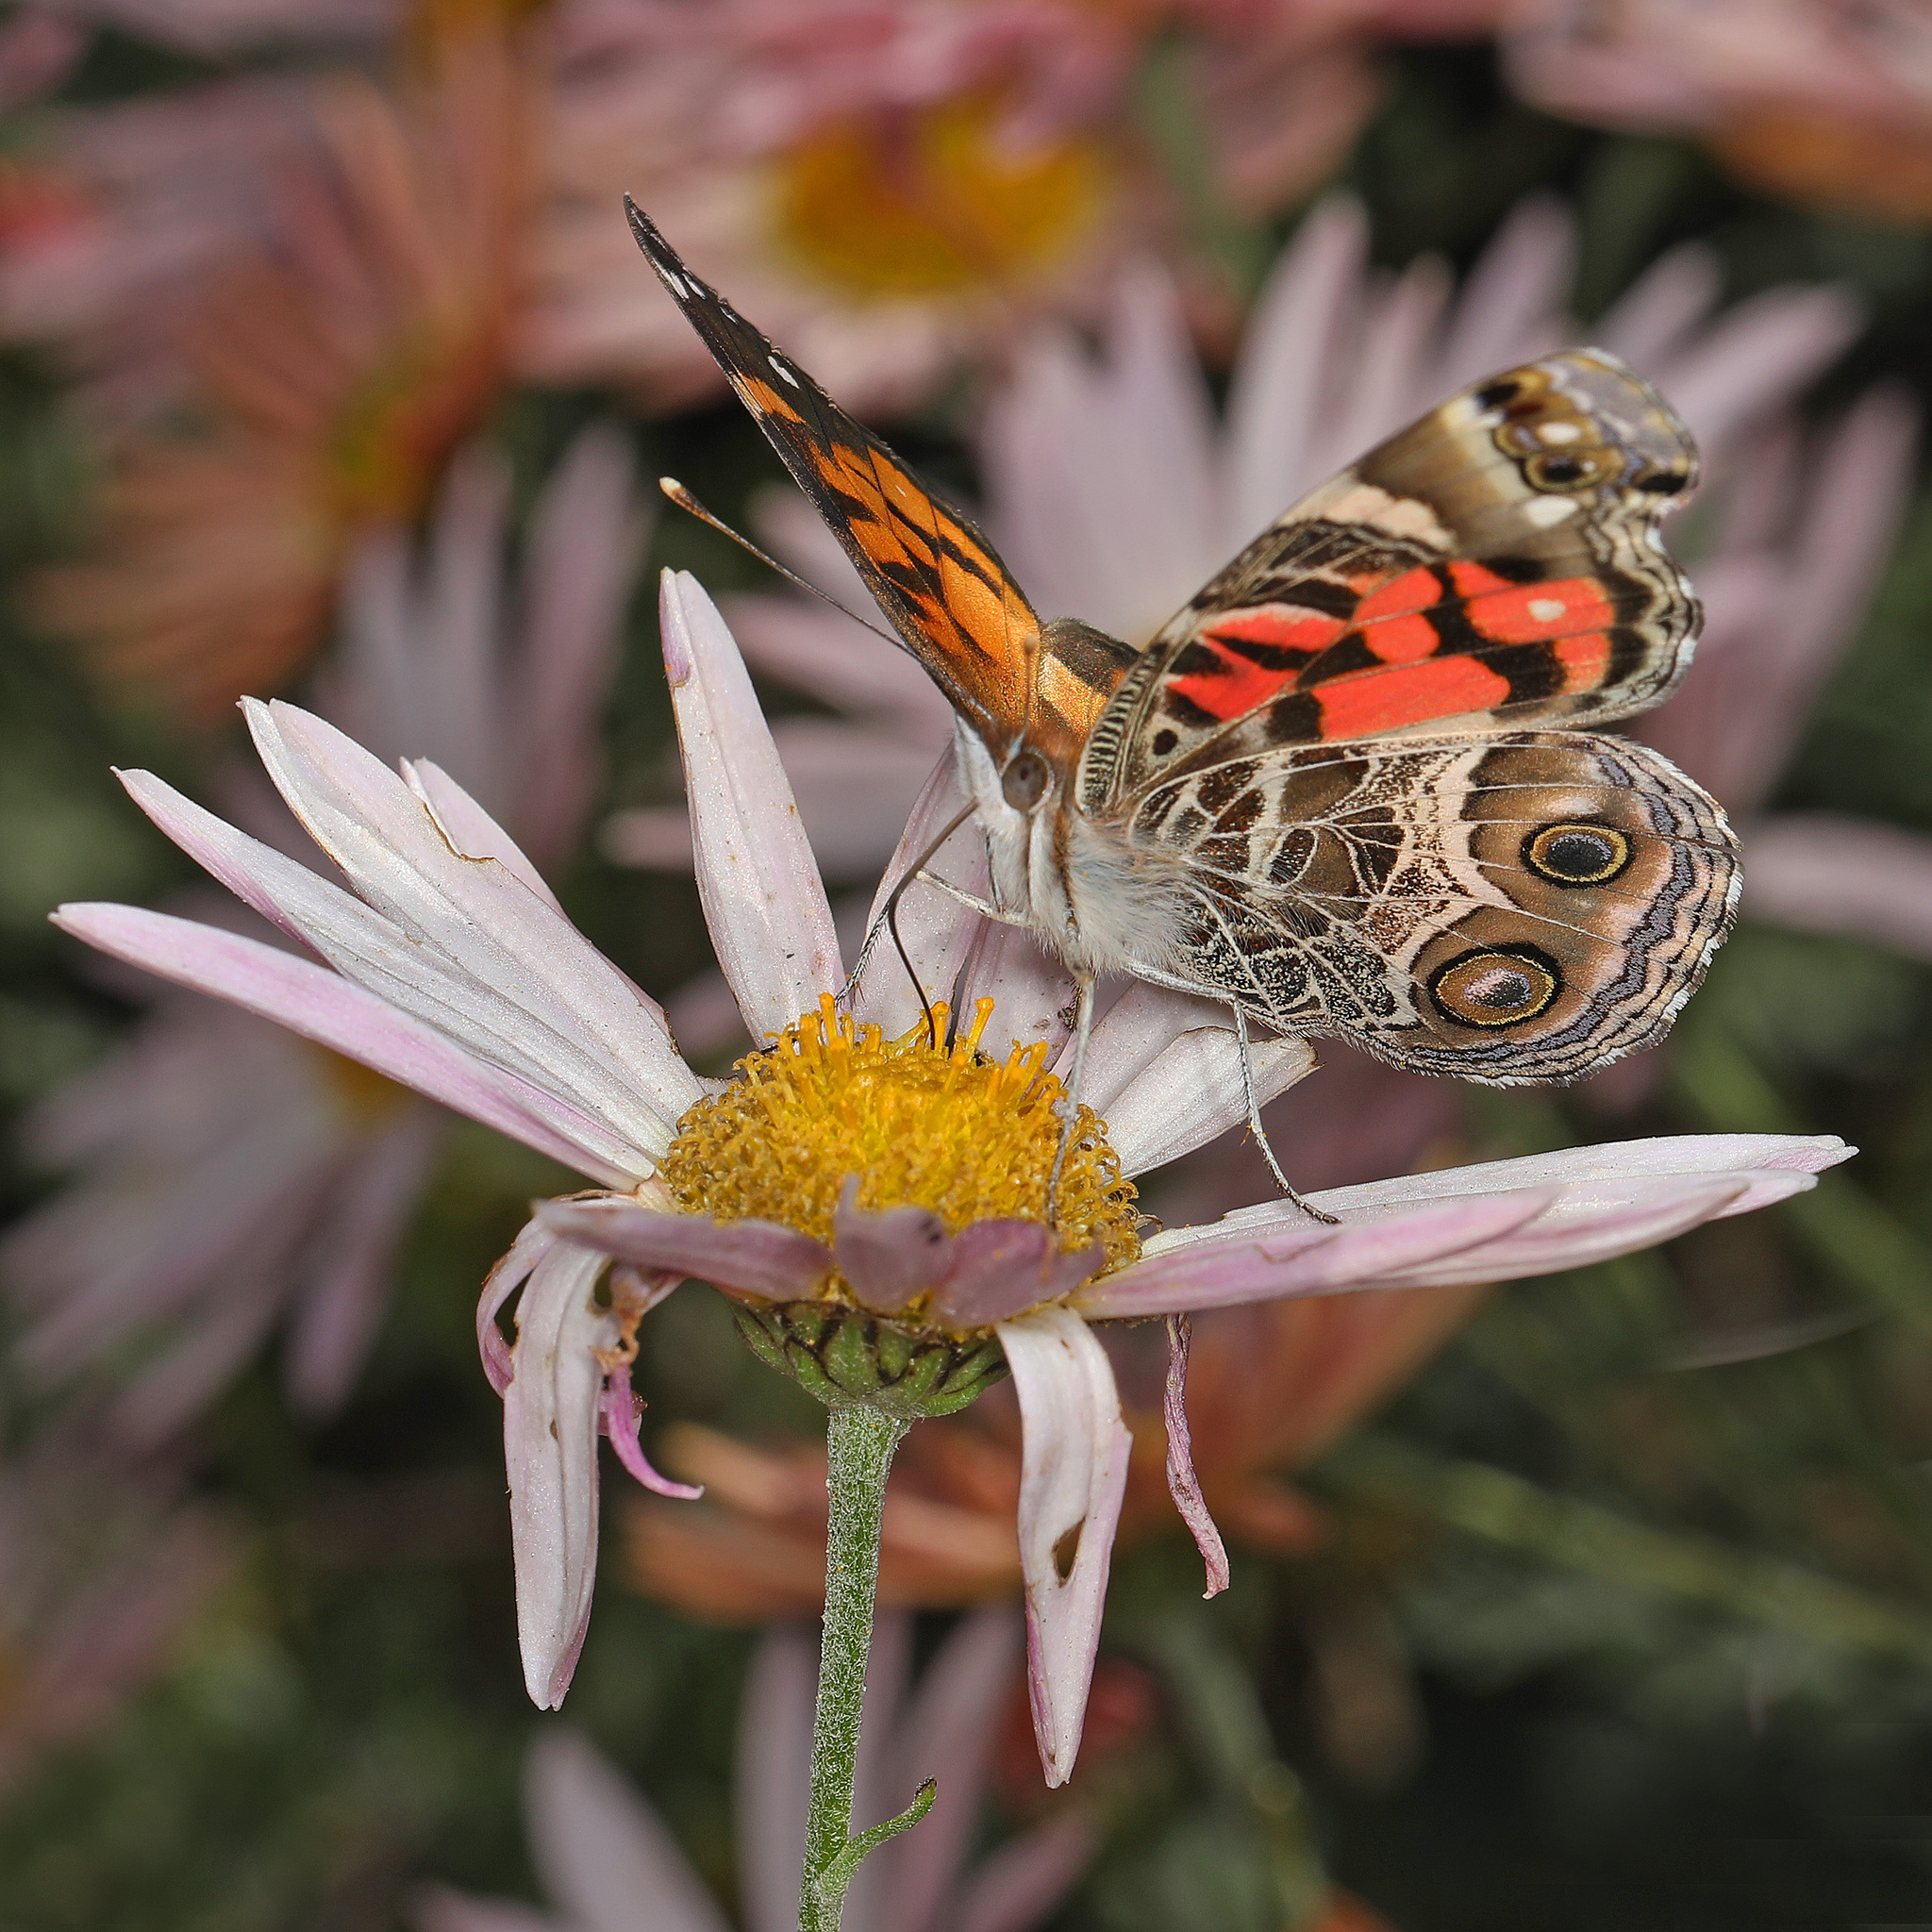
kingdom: Animalia
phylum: Arthropoda
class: Insecta
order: Lepidoptera
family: Nymphalidae
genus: Vanessa
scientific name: Vanessa virginiensis
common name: American lady
